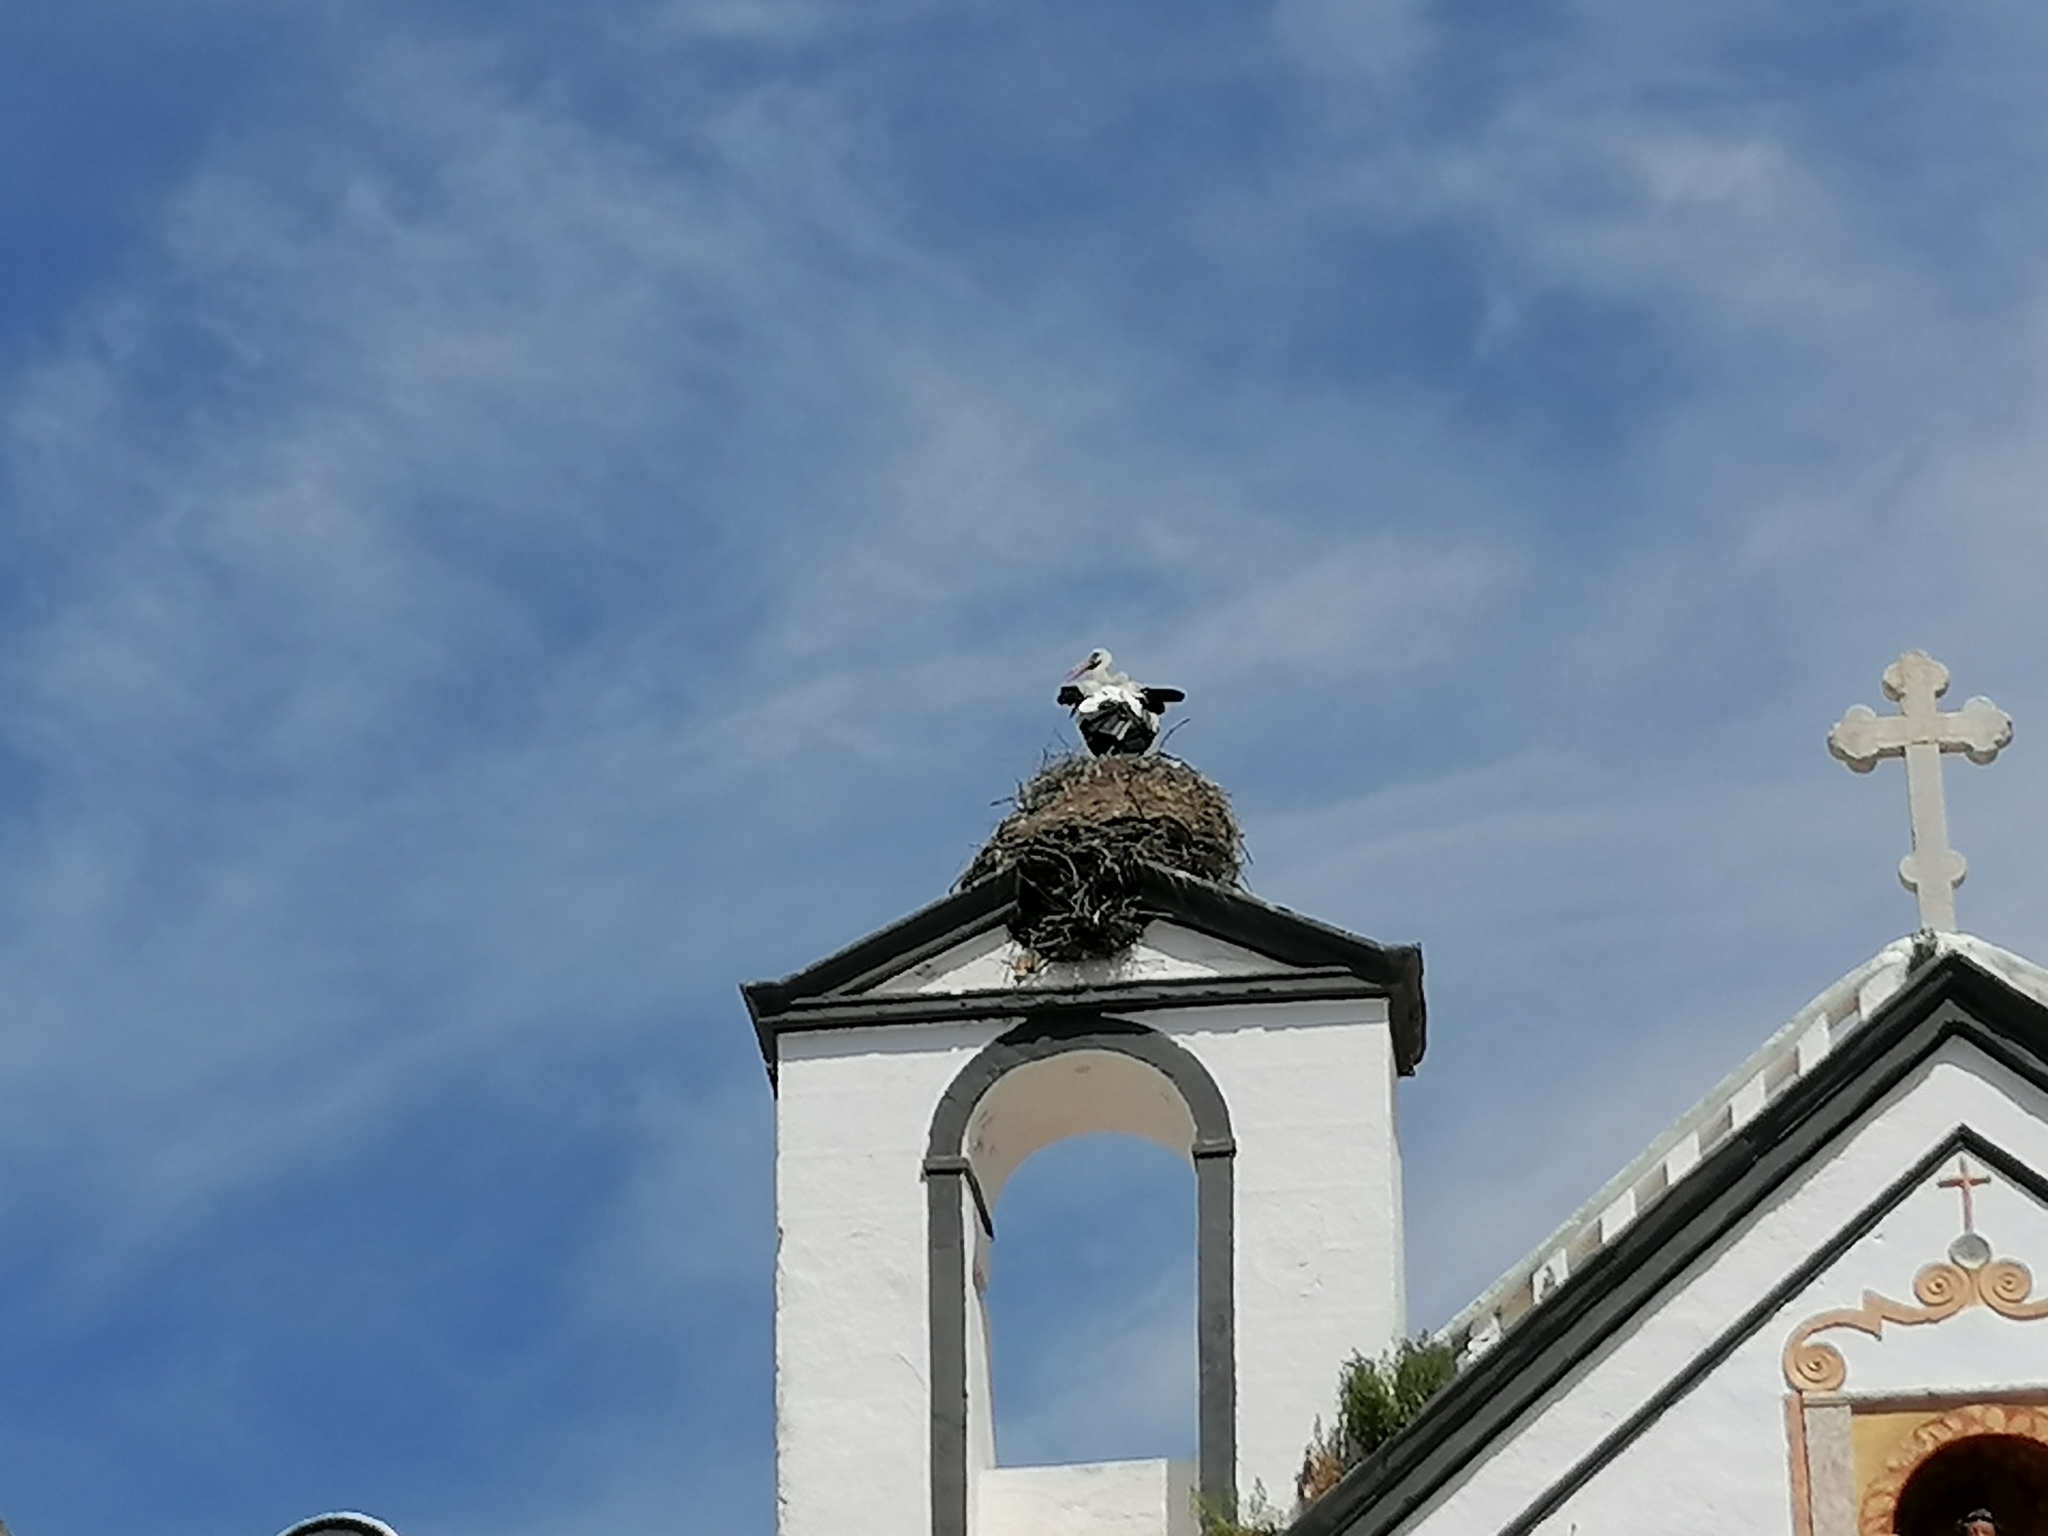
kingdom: Animalia
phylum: Chordata
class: Aves
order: Ciconiiformes
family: Ciconiidae
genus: Ciconia
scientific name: Ciconia ciconia
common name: White stork
